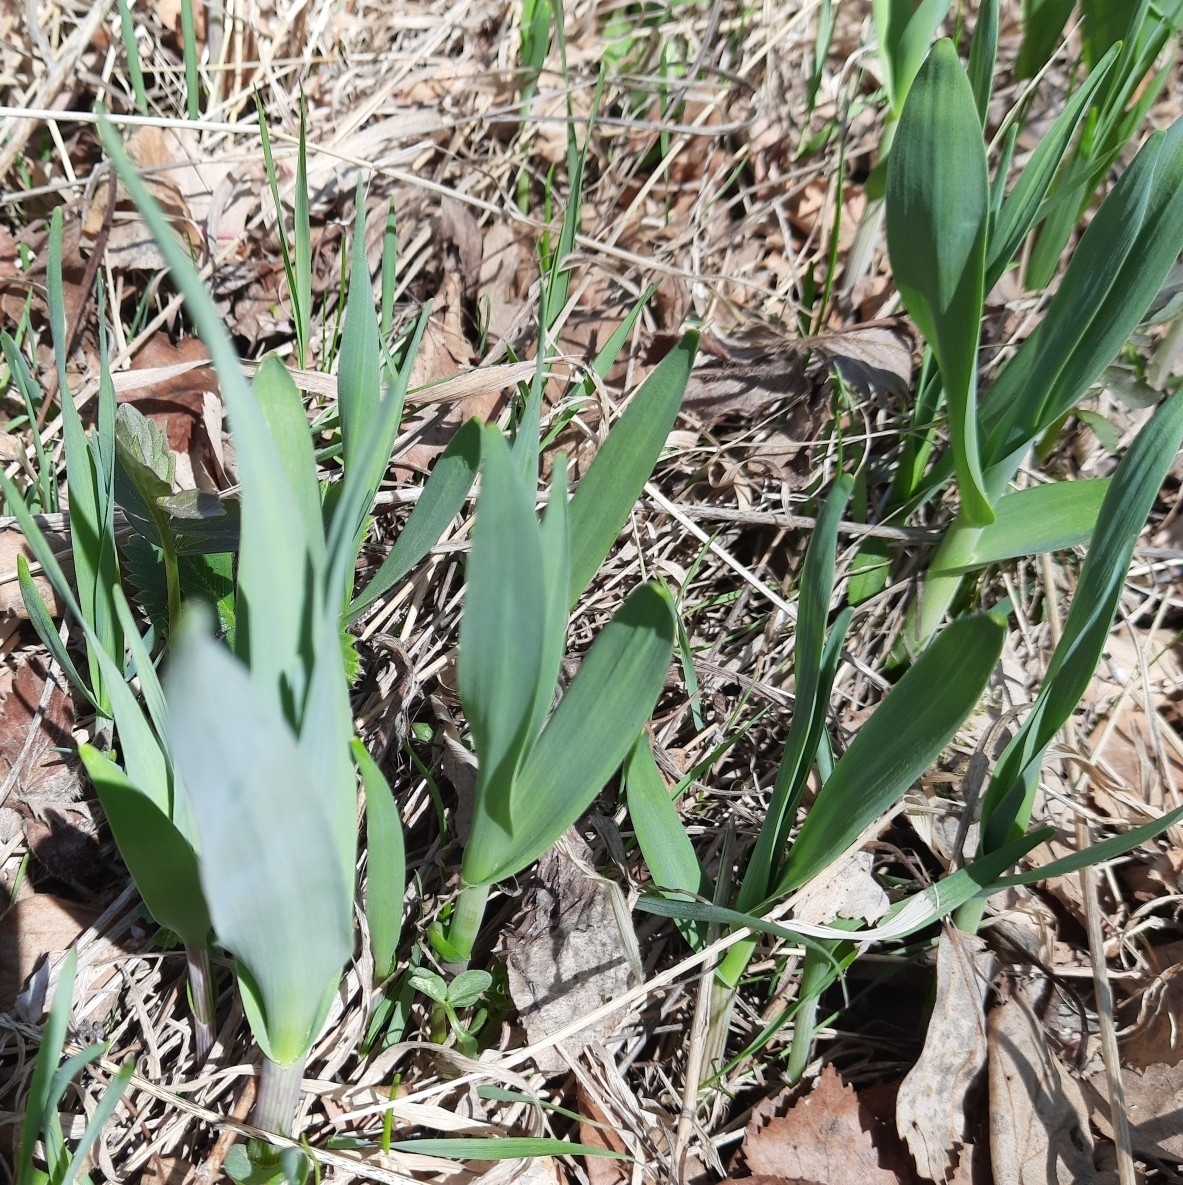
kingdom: Plantae
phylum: Tracheophyta
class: Liliopsida
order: Asparagales
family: Amaryllidaceae
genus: Allium
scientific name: Allium obliquum
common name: Oblique onion
